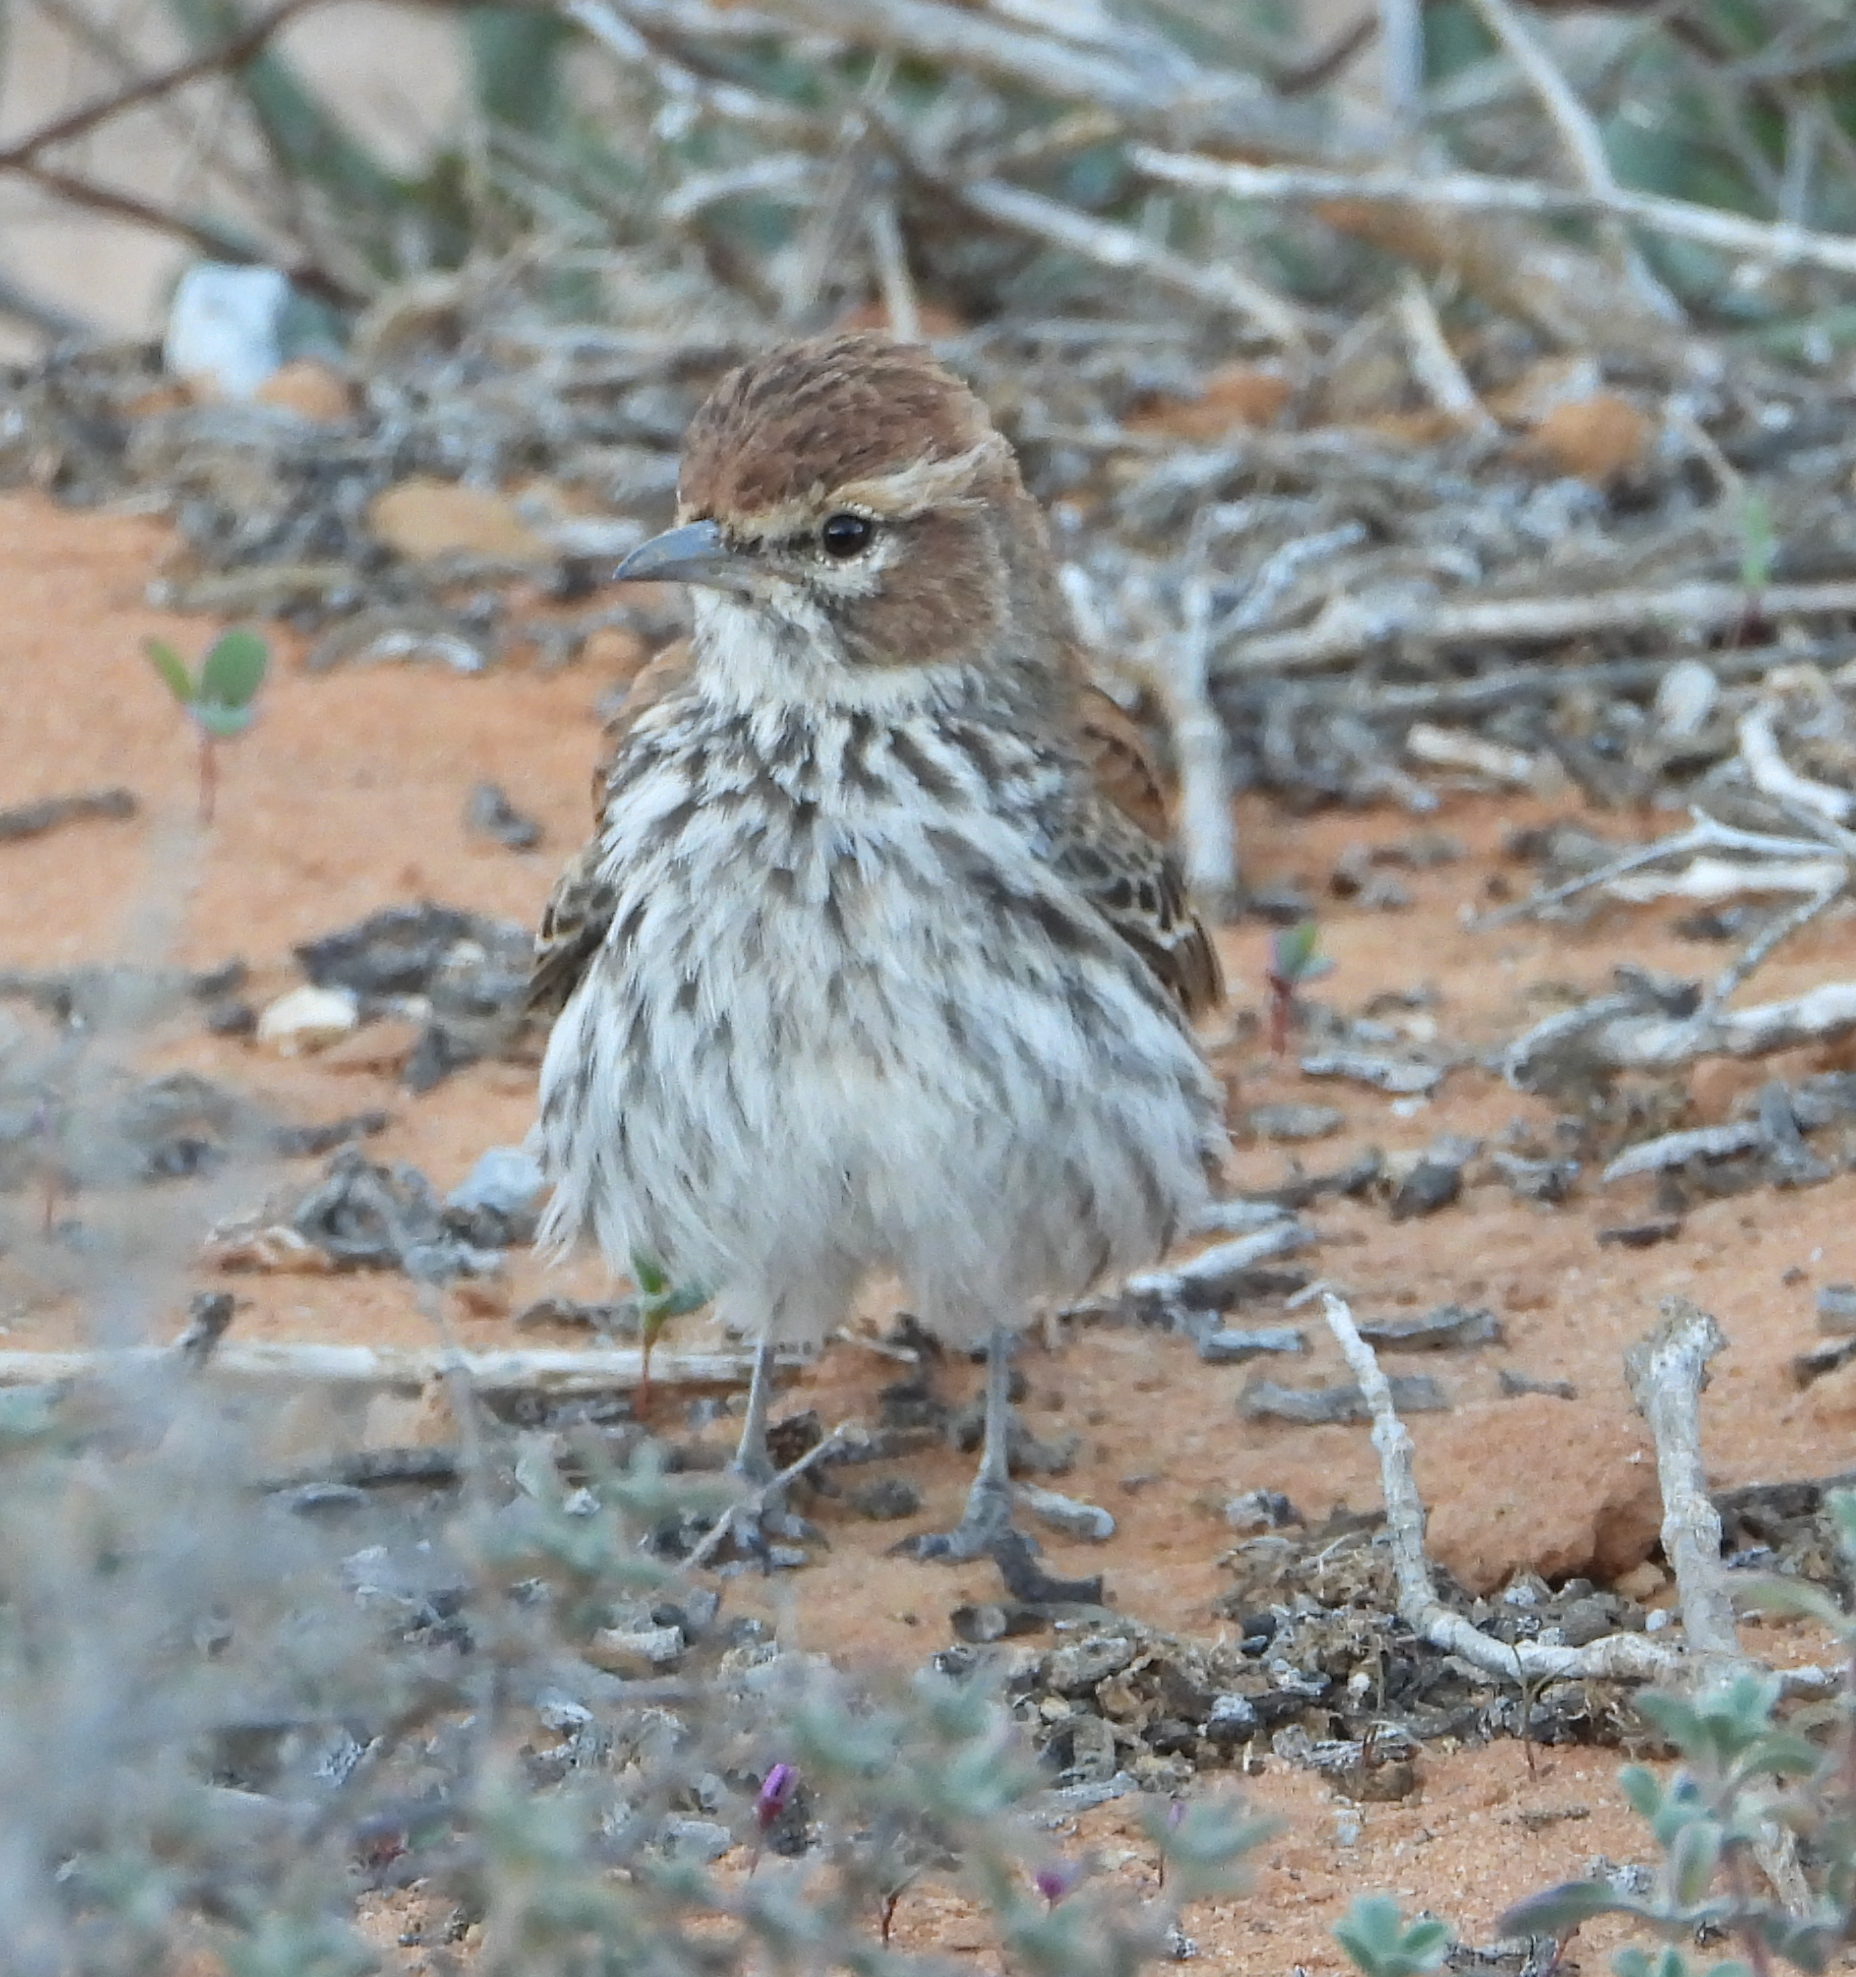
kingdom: Animalia
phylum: Chordata
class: Aves
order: Passeriformes
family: Alaudidae
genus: Calendulauda
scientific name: Calendulauda albescens
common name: Karoo lark
